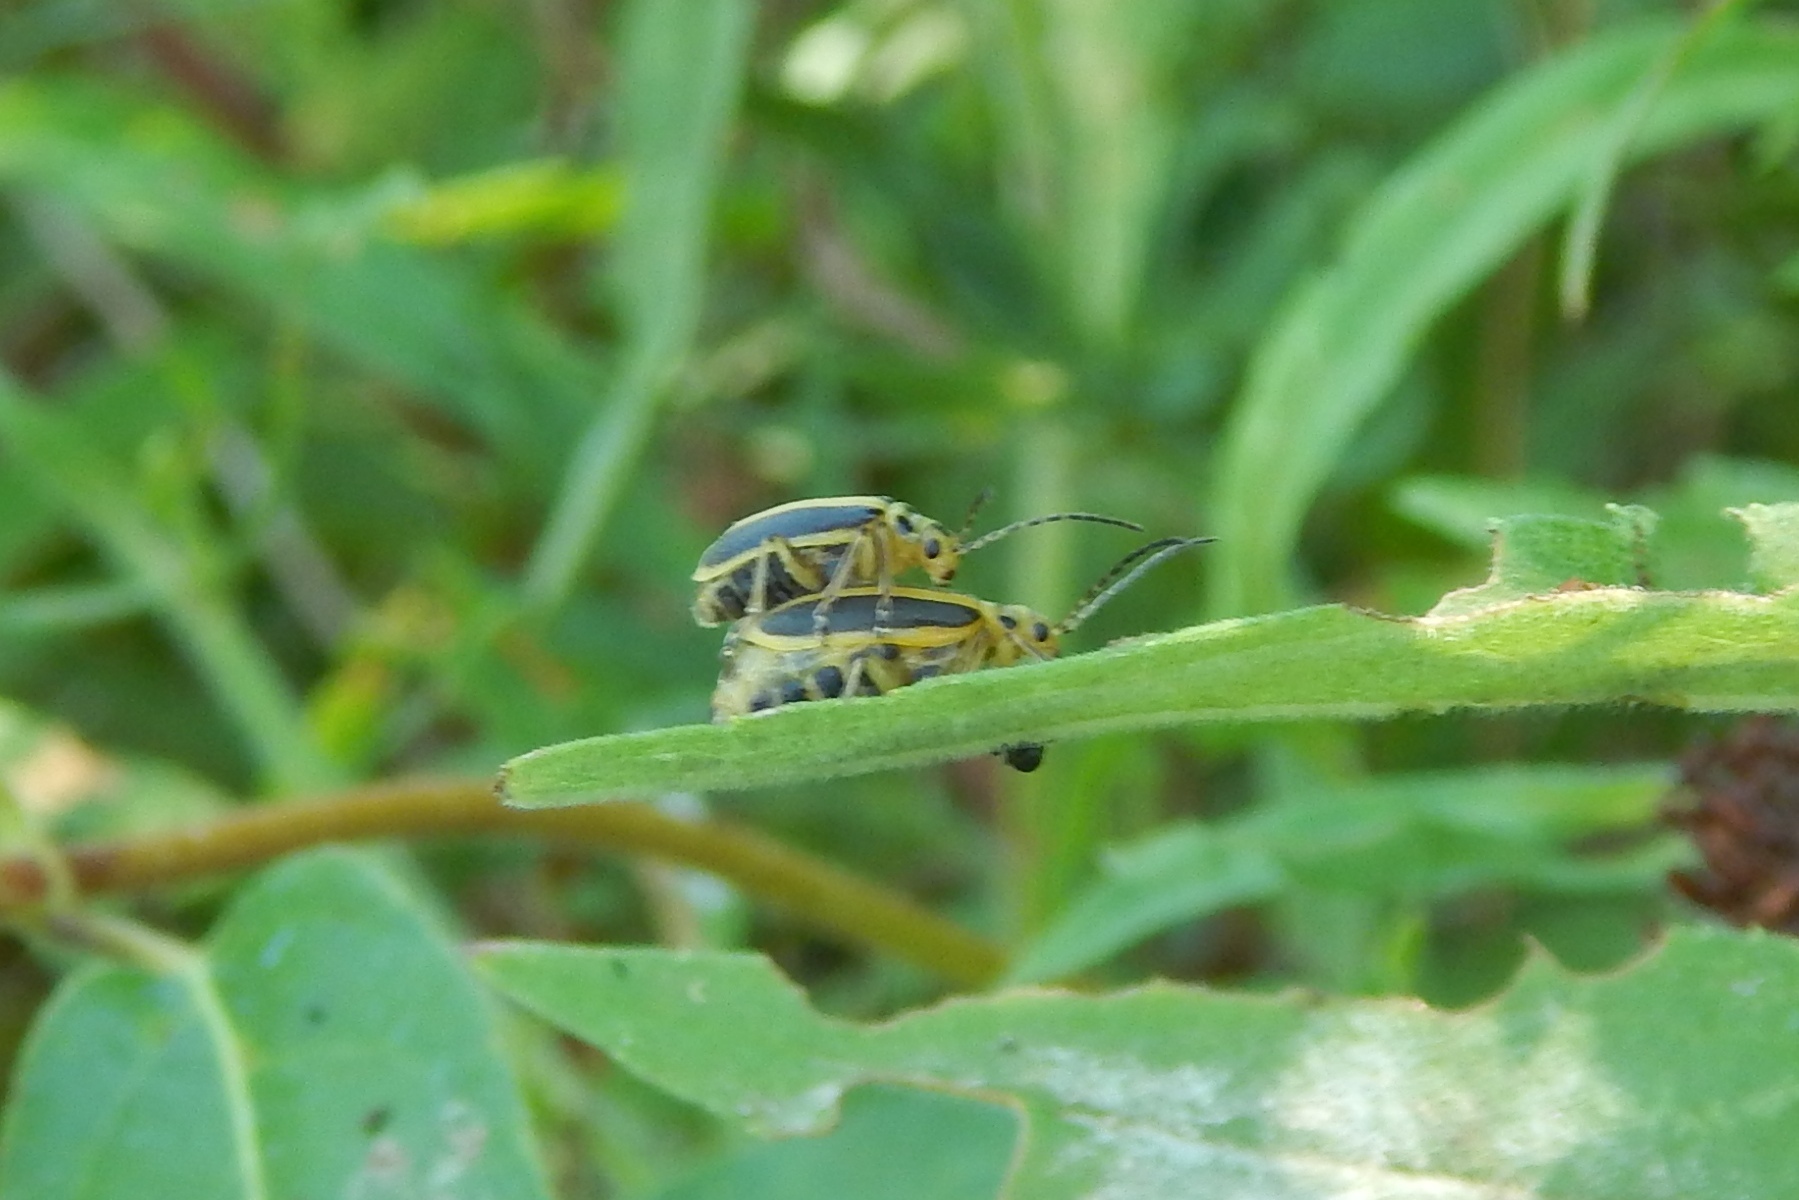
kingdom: Animalia
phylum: Arthropoda
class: Insecta
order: Coleoptera
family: Chrysomelidae
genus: Trirhabda
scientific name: Trirhabda adela
